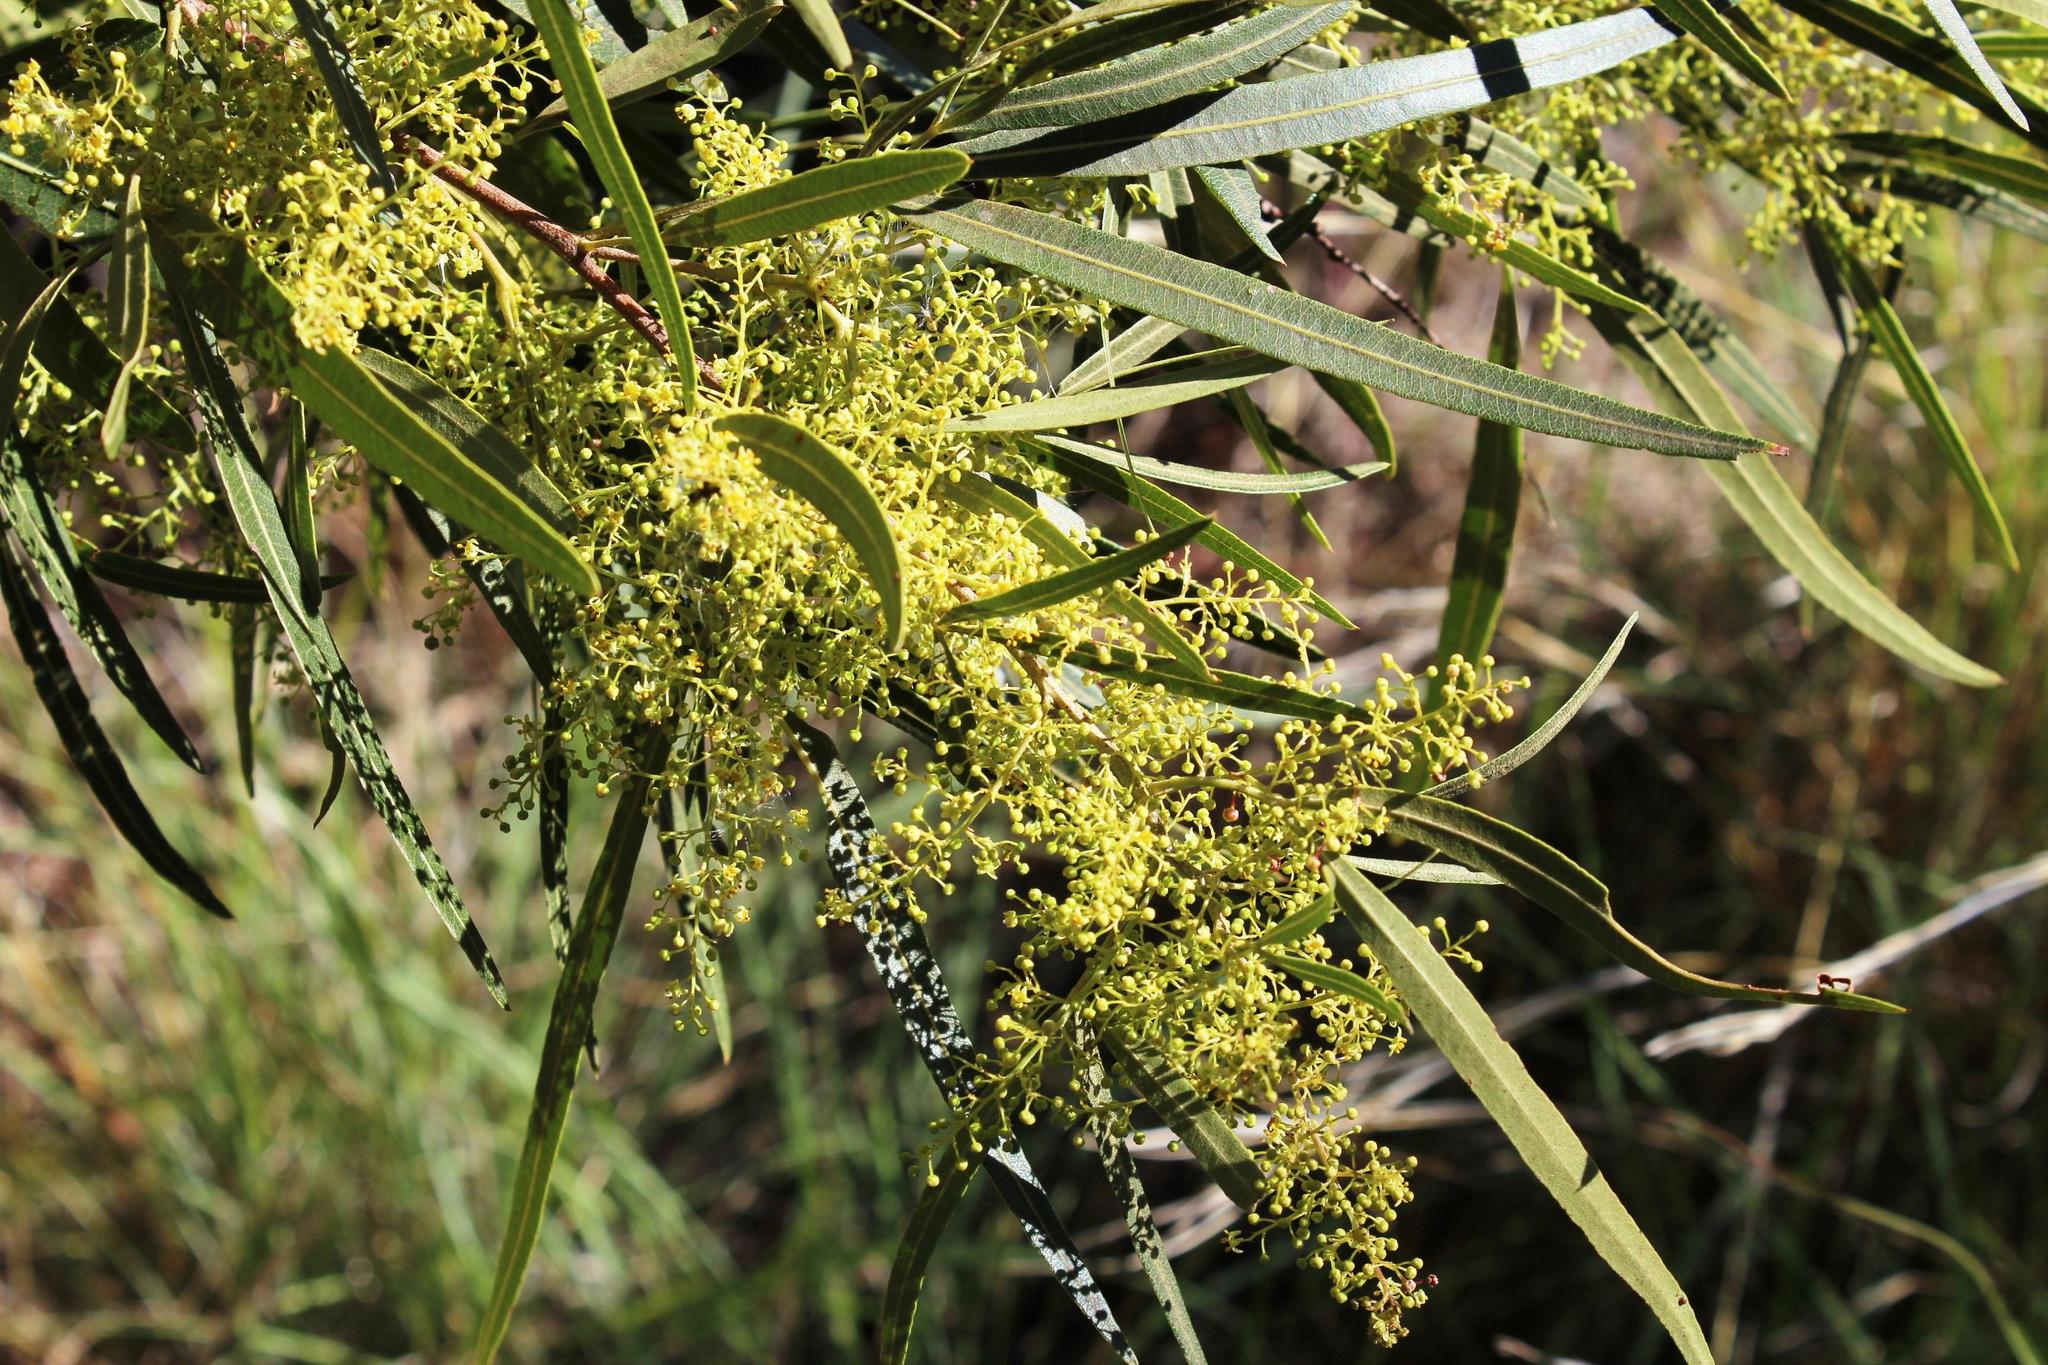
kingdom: Plantae
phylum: Tracheophyta
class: Magnoliopsida
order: Sapindales
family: Anacardiaceae
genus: Searsia
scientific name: Searsia lancea
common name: Cashew
